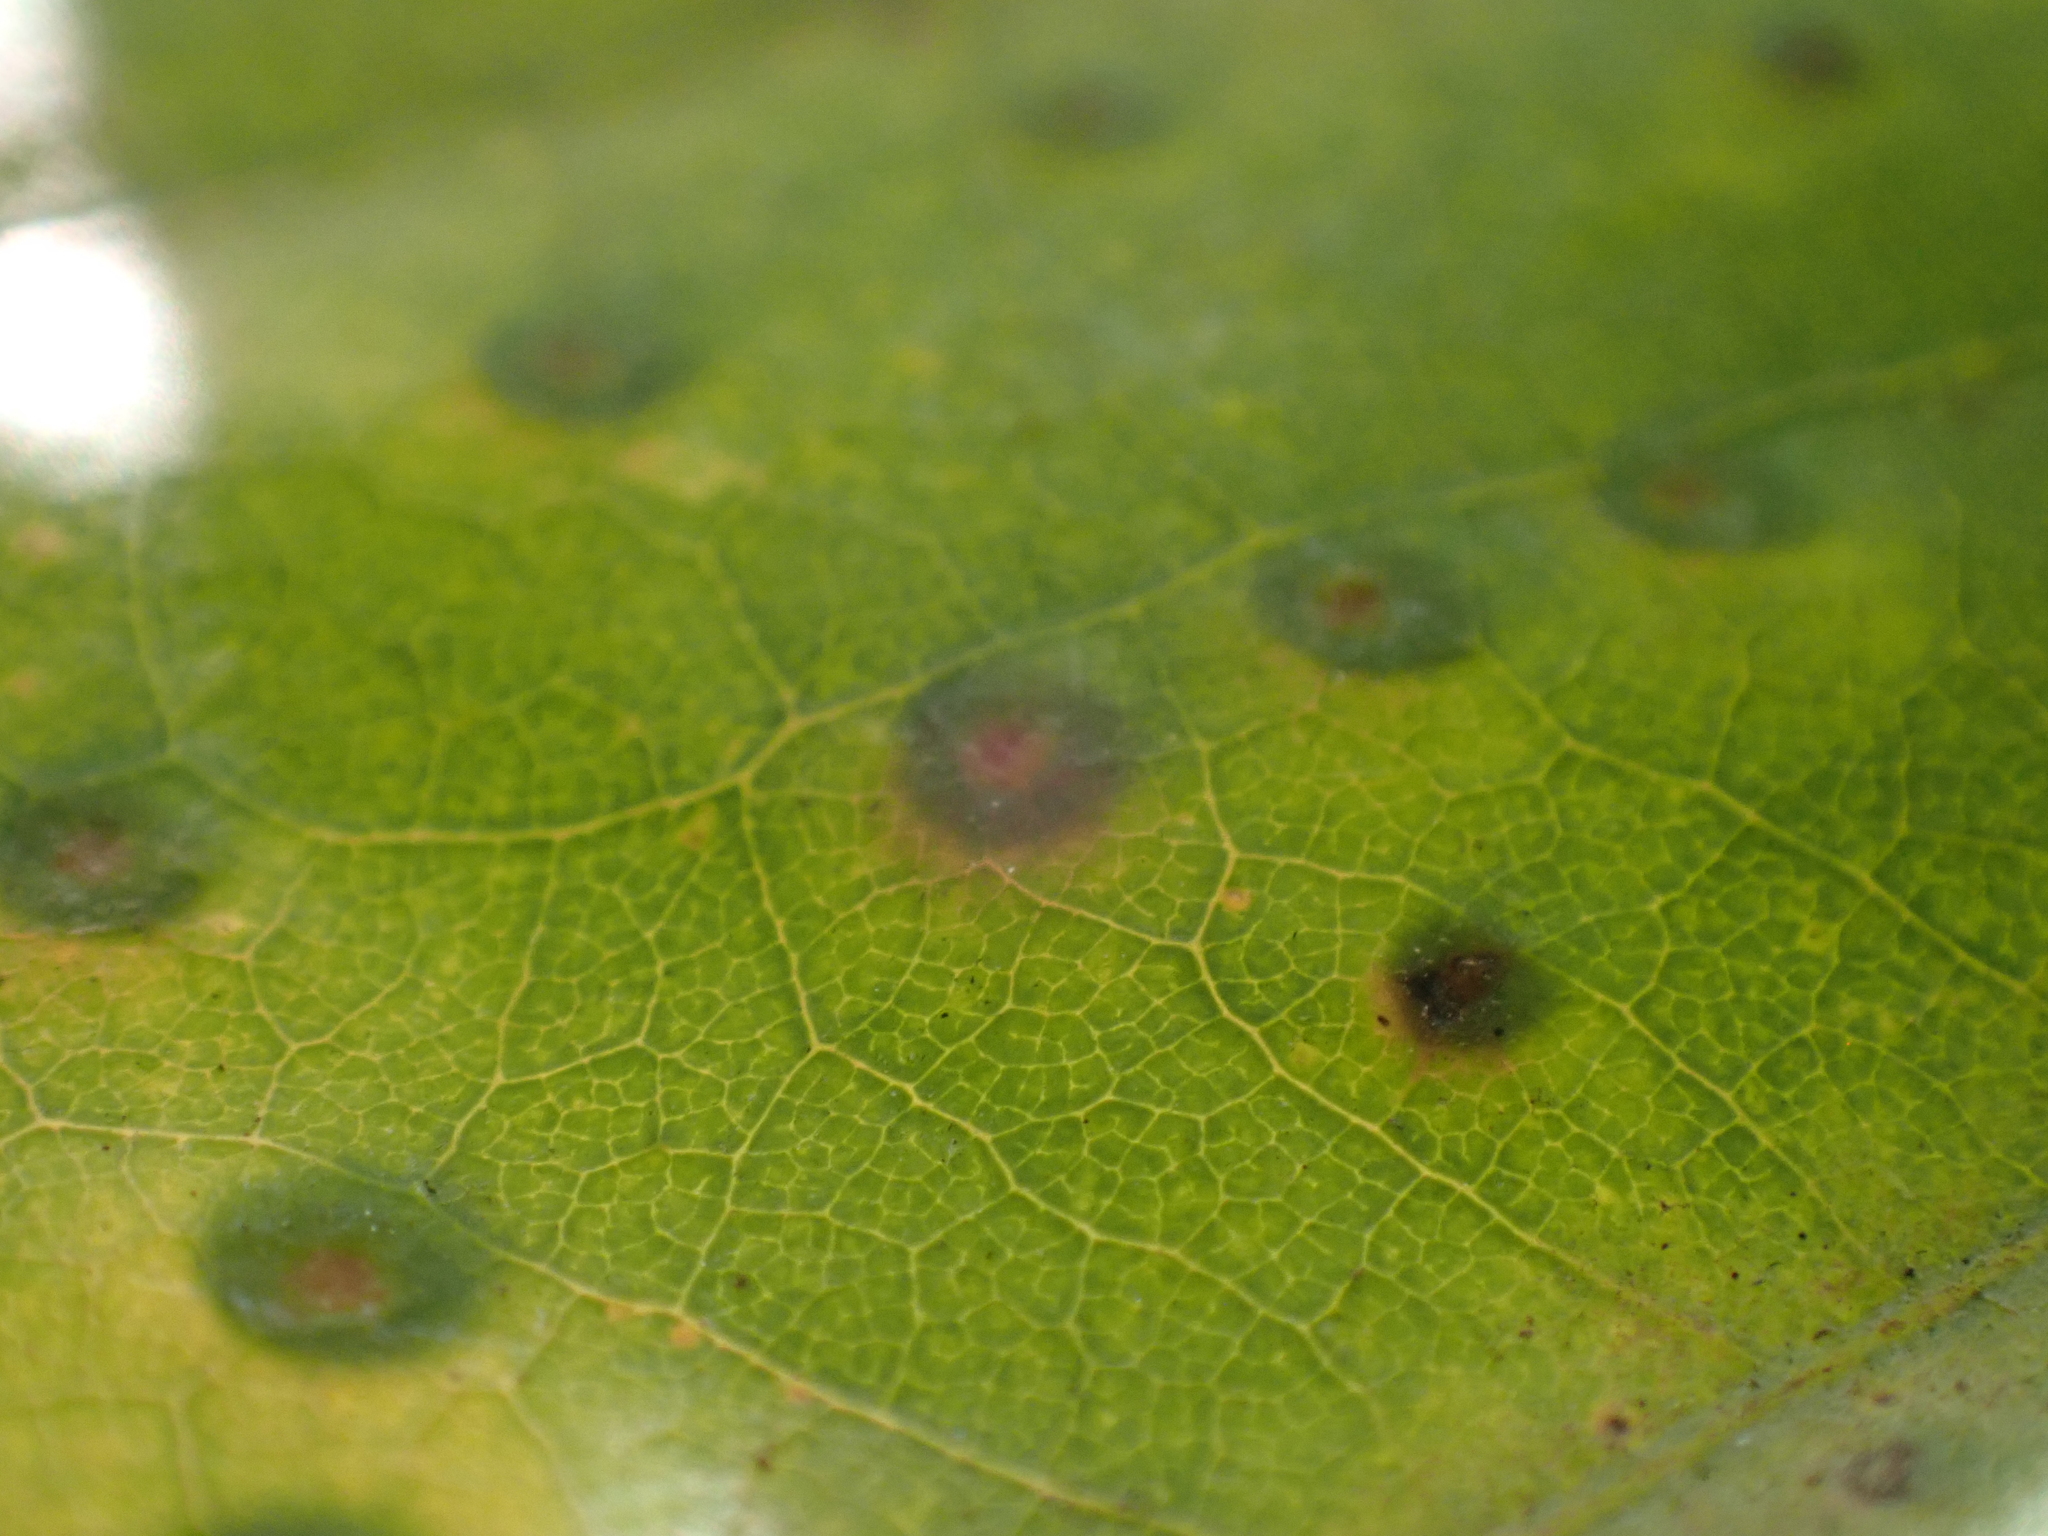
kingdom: Animalia
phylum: Arthropoda
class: Insecta
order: Hymenoptera
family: Cynipidae
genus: Neuroterus
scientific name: Neuroterus numismalis
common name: Silk-button spangle gall
